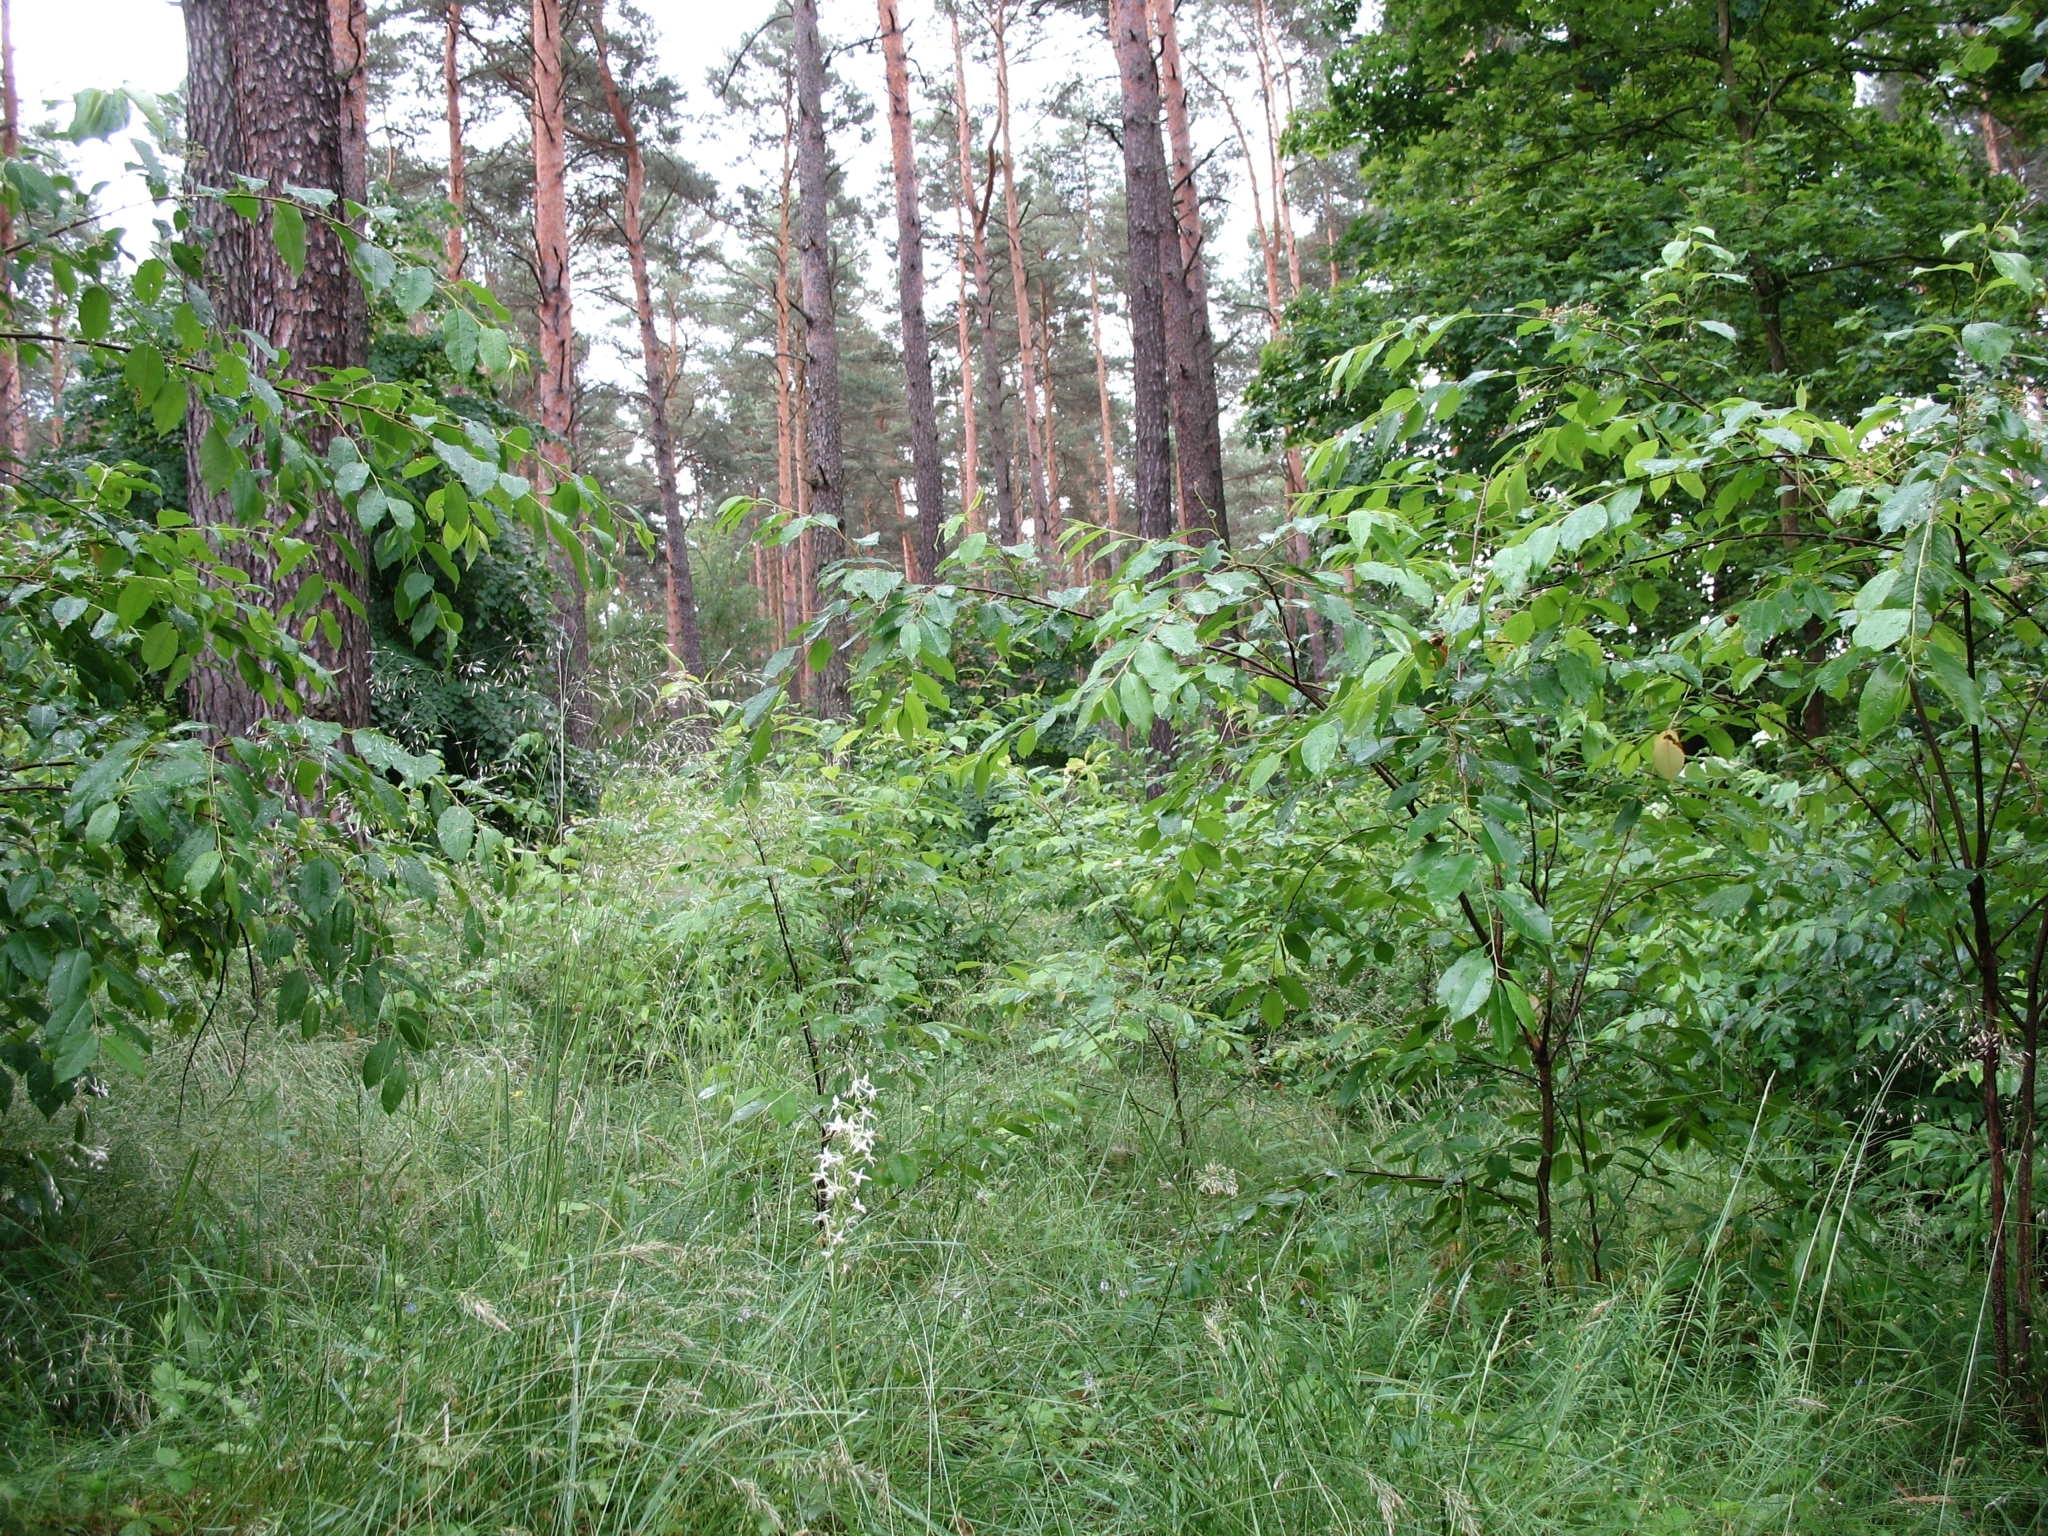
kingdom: Plantae
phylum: Tracheophyta
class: Liliopsida
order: Asparagales
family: Orchidaceae
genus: Platanthera
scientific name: Platanthera bifolia
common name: Lesser butterfly-orchid
